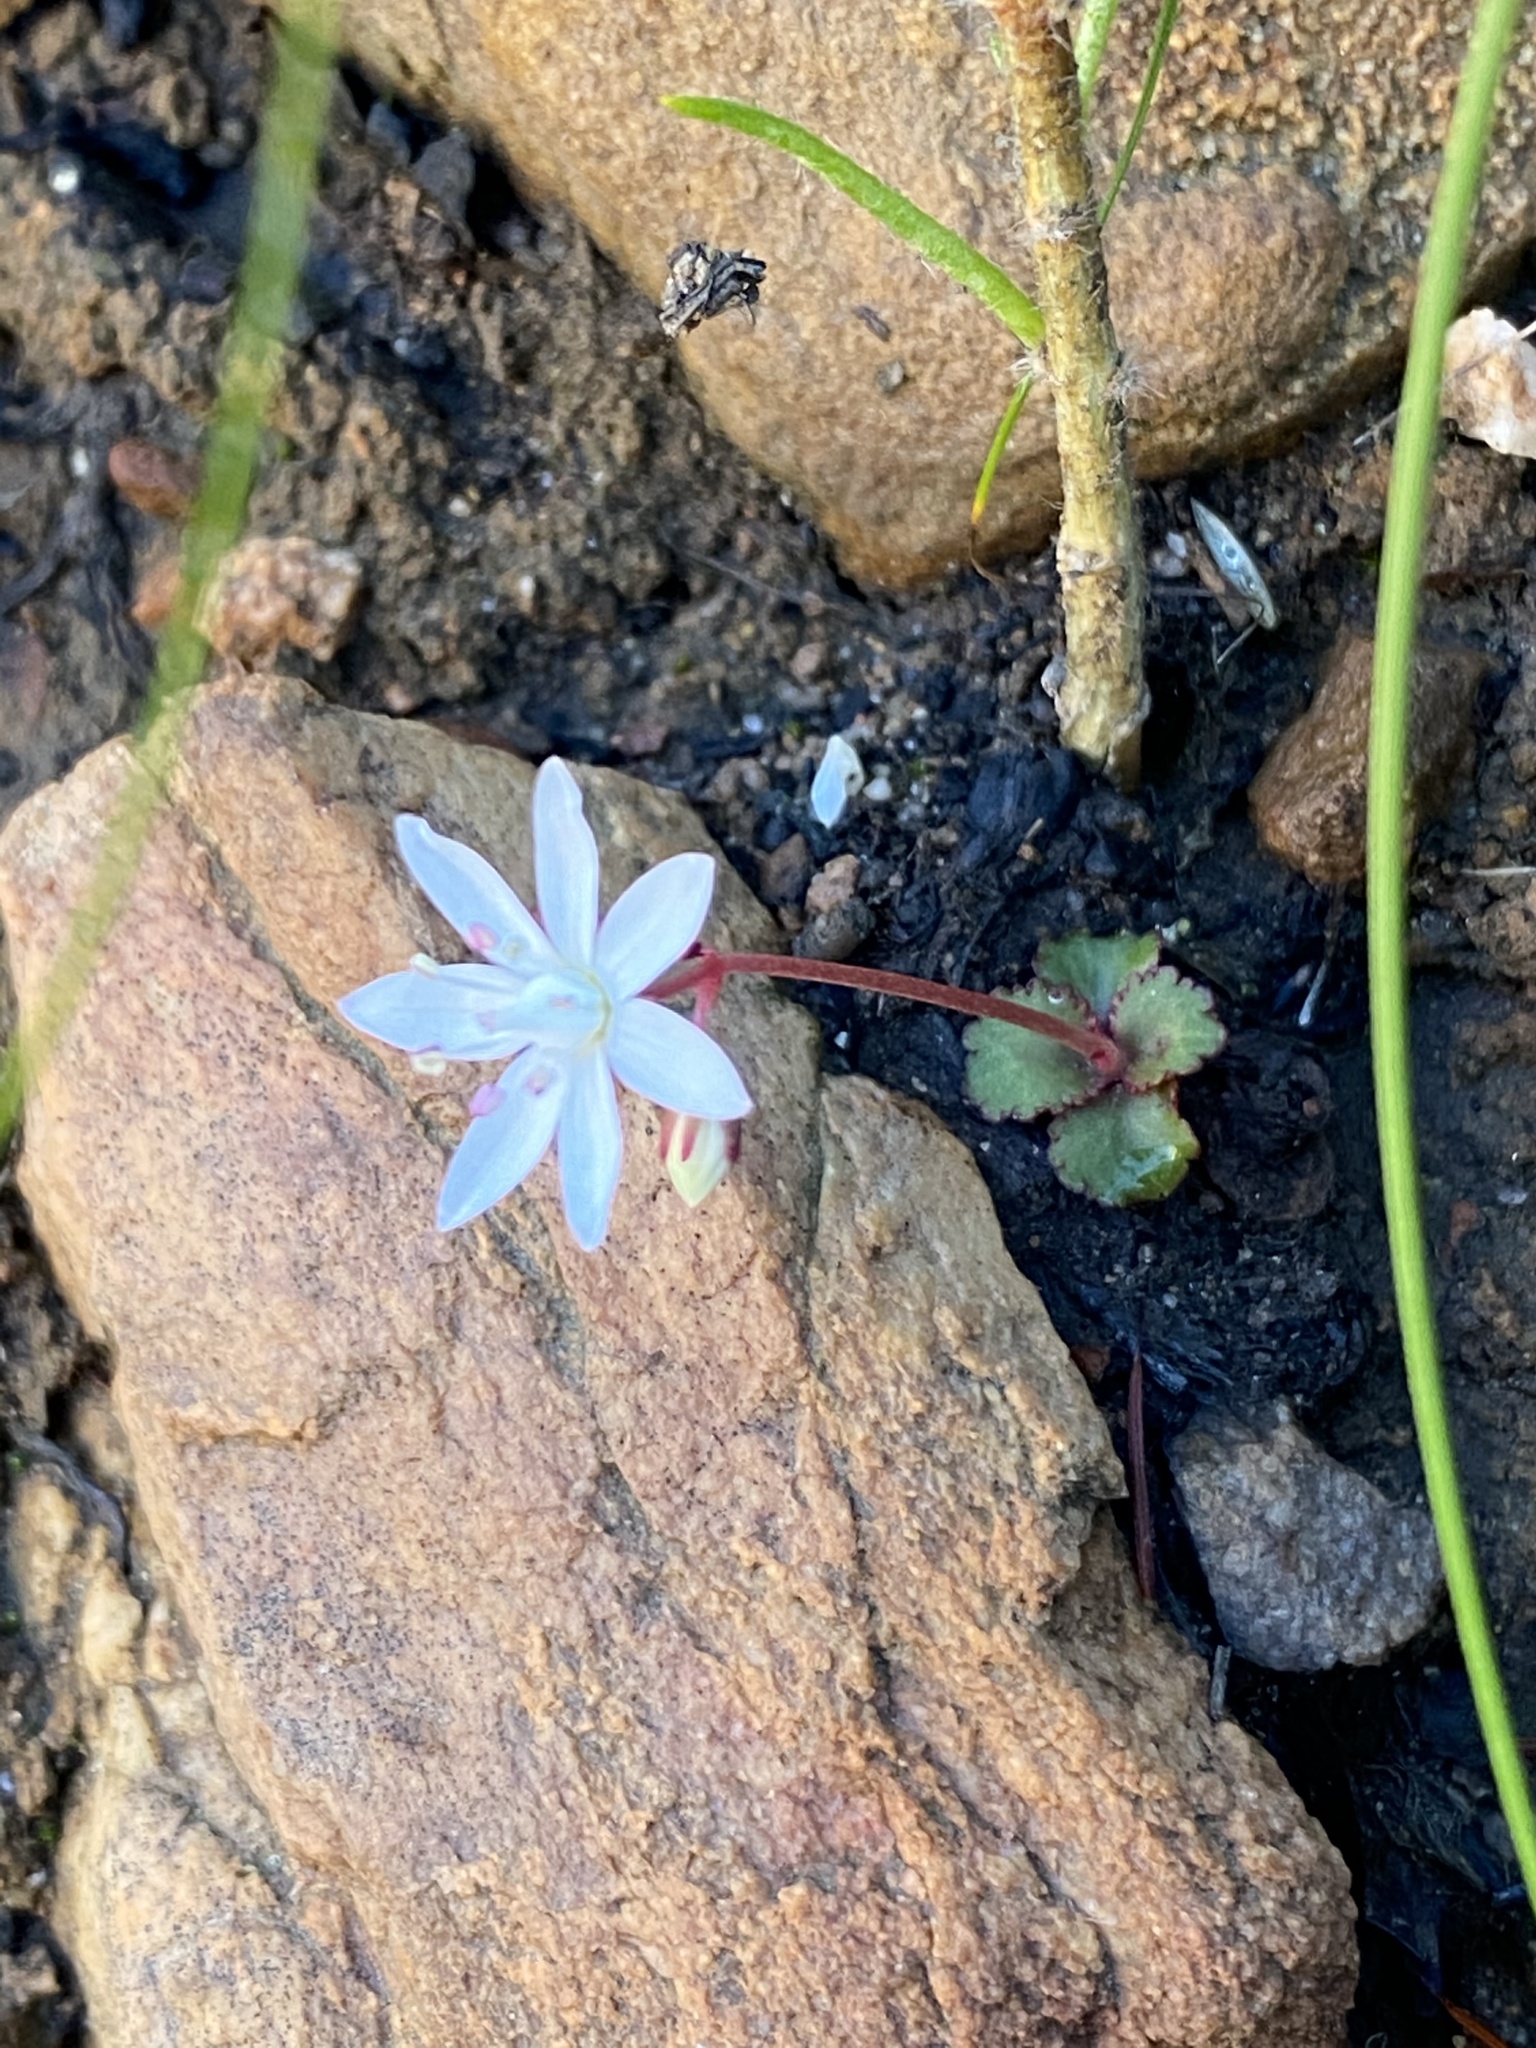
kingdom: Plantae
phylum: Tracheophyta
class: Magnoliopsida
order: Saxifragales
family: Crassulaceae
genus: Crassula
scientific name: Crassula capensis
